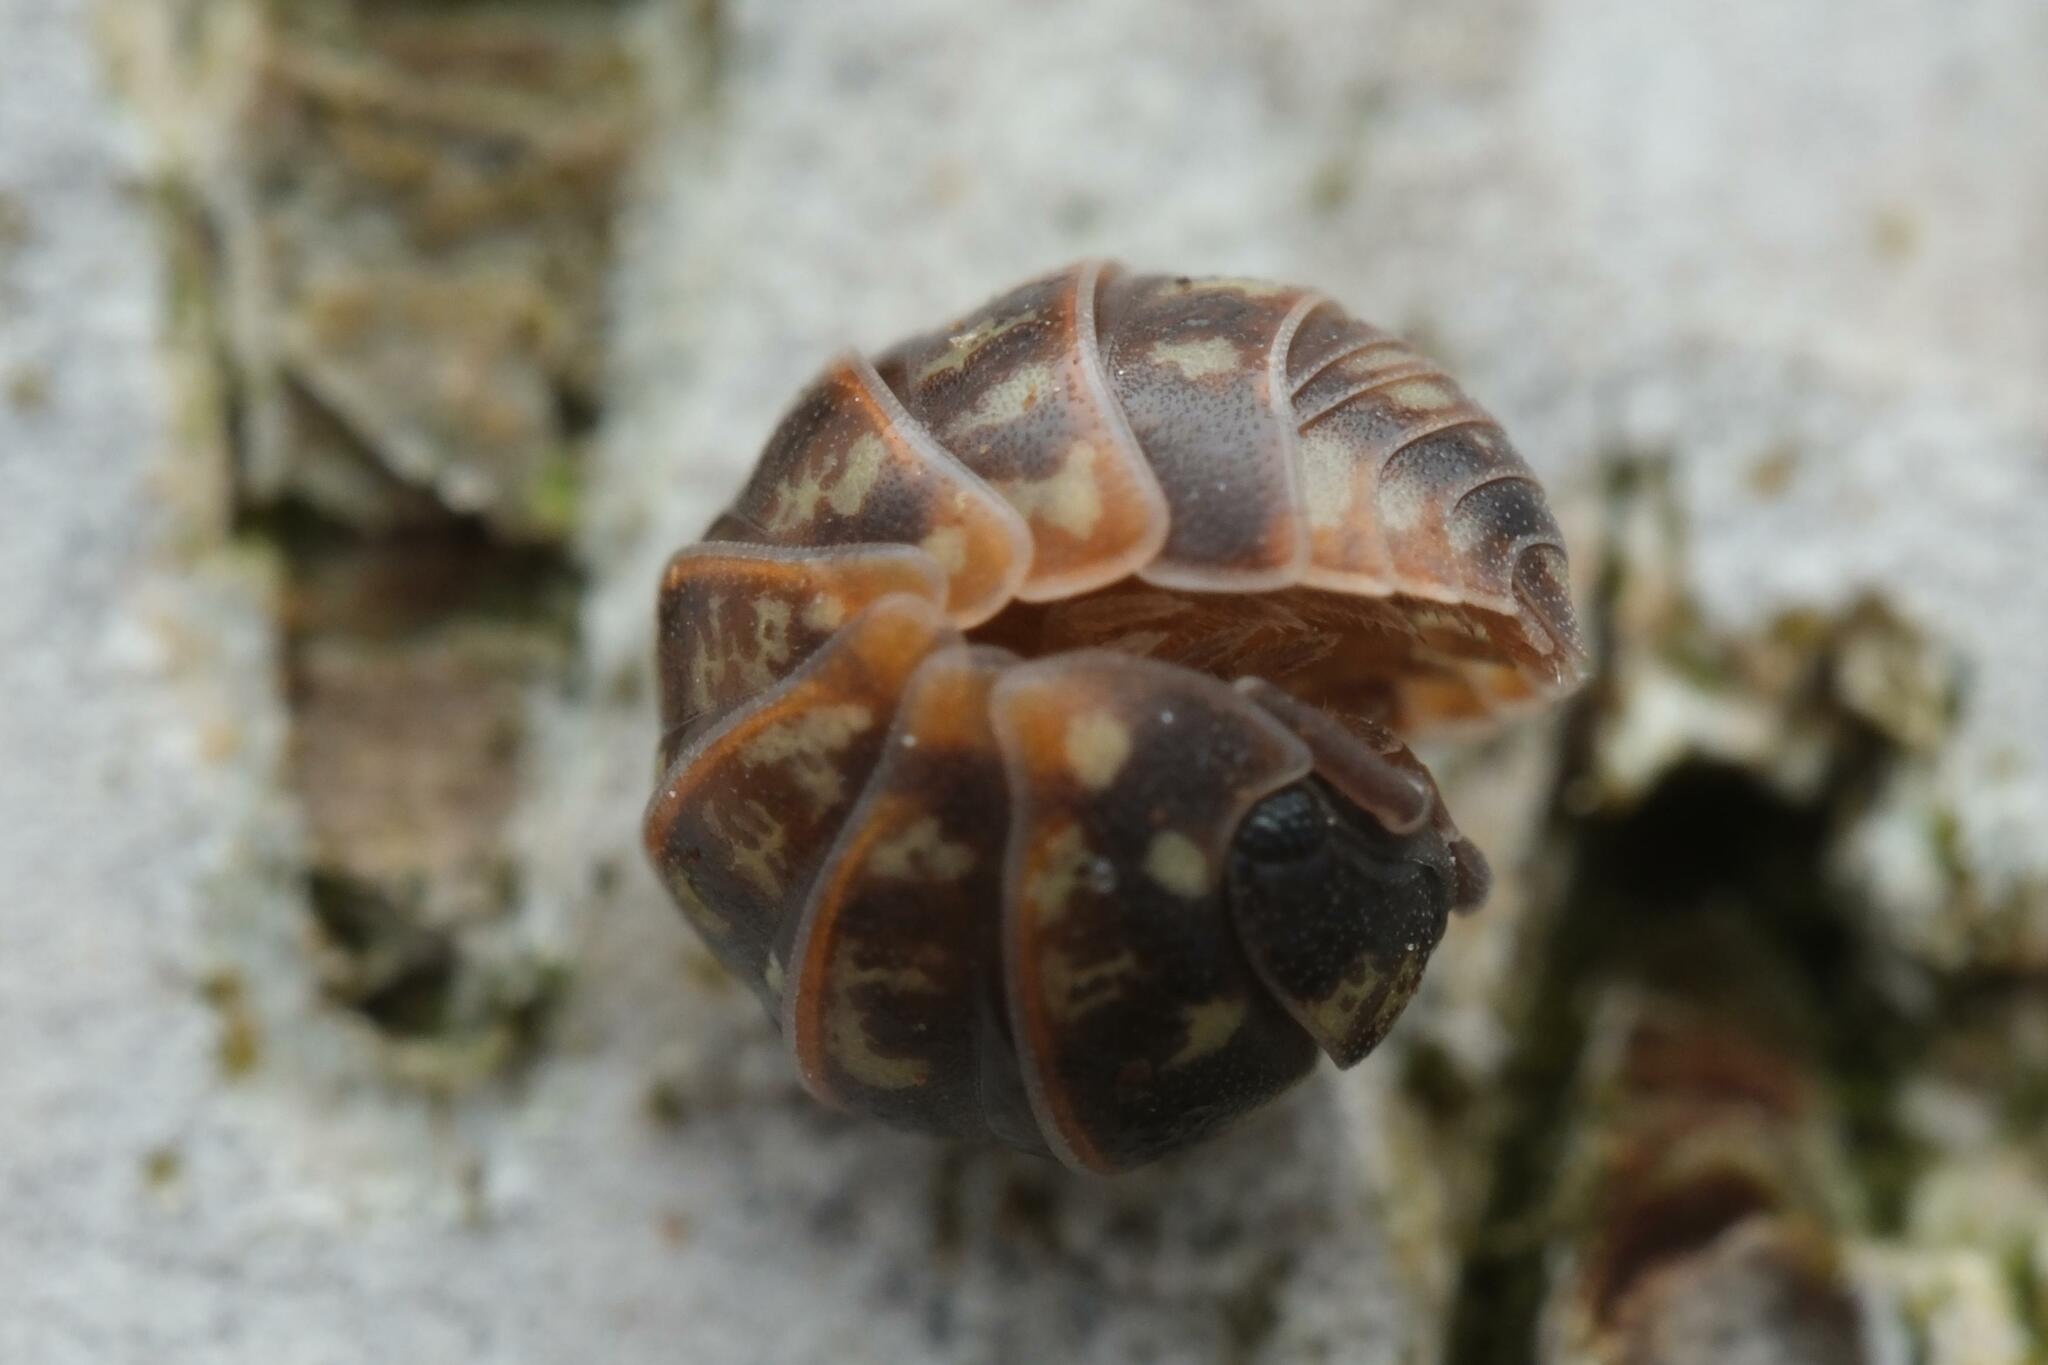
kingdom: Animalia
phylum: Arthropoda
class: Malacostraca
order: Isopoda
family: Armadillidiidae
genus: Armadillidium
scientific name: Armadillidium pulchellum
